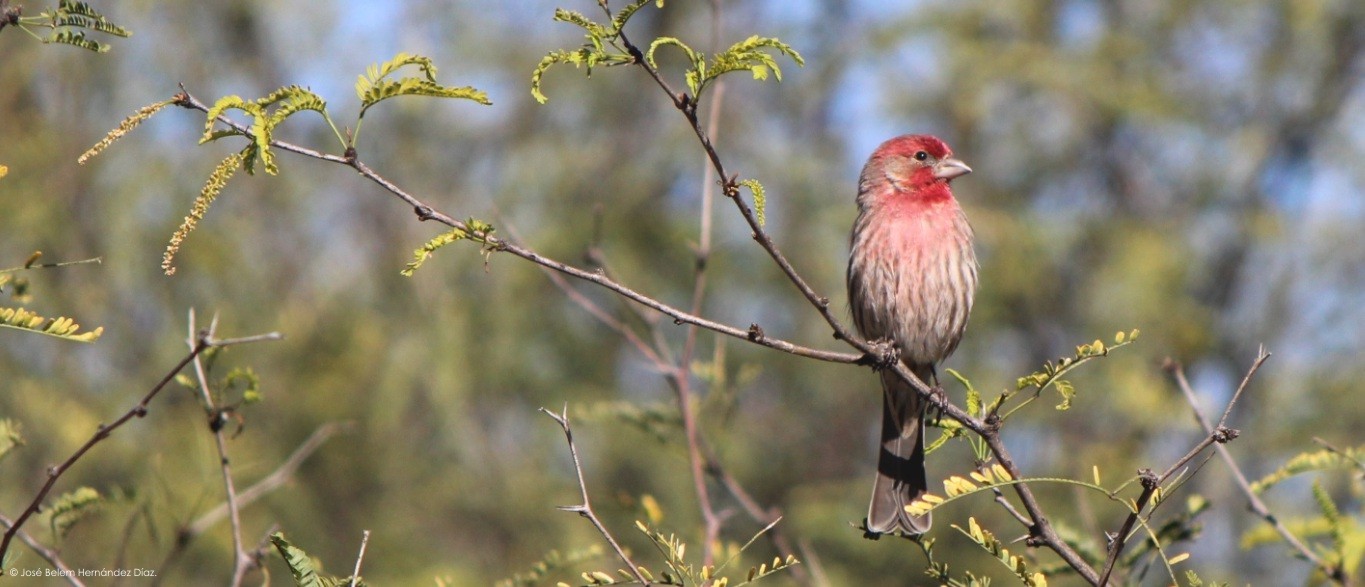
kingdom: Animalia
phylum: Chordata
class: Aves
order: Passeriformes
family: Fringillidae
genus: Haemorhous
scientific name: Haemorhous mexicanus
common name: House finch
